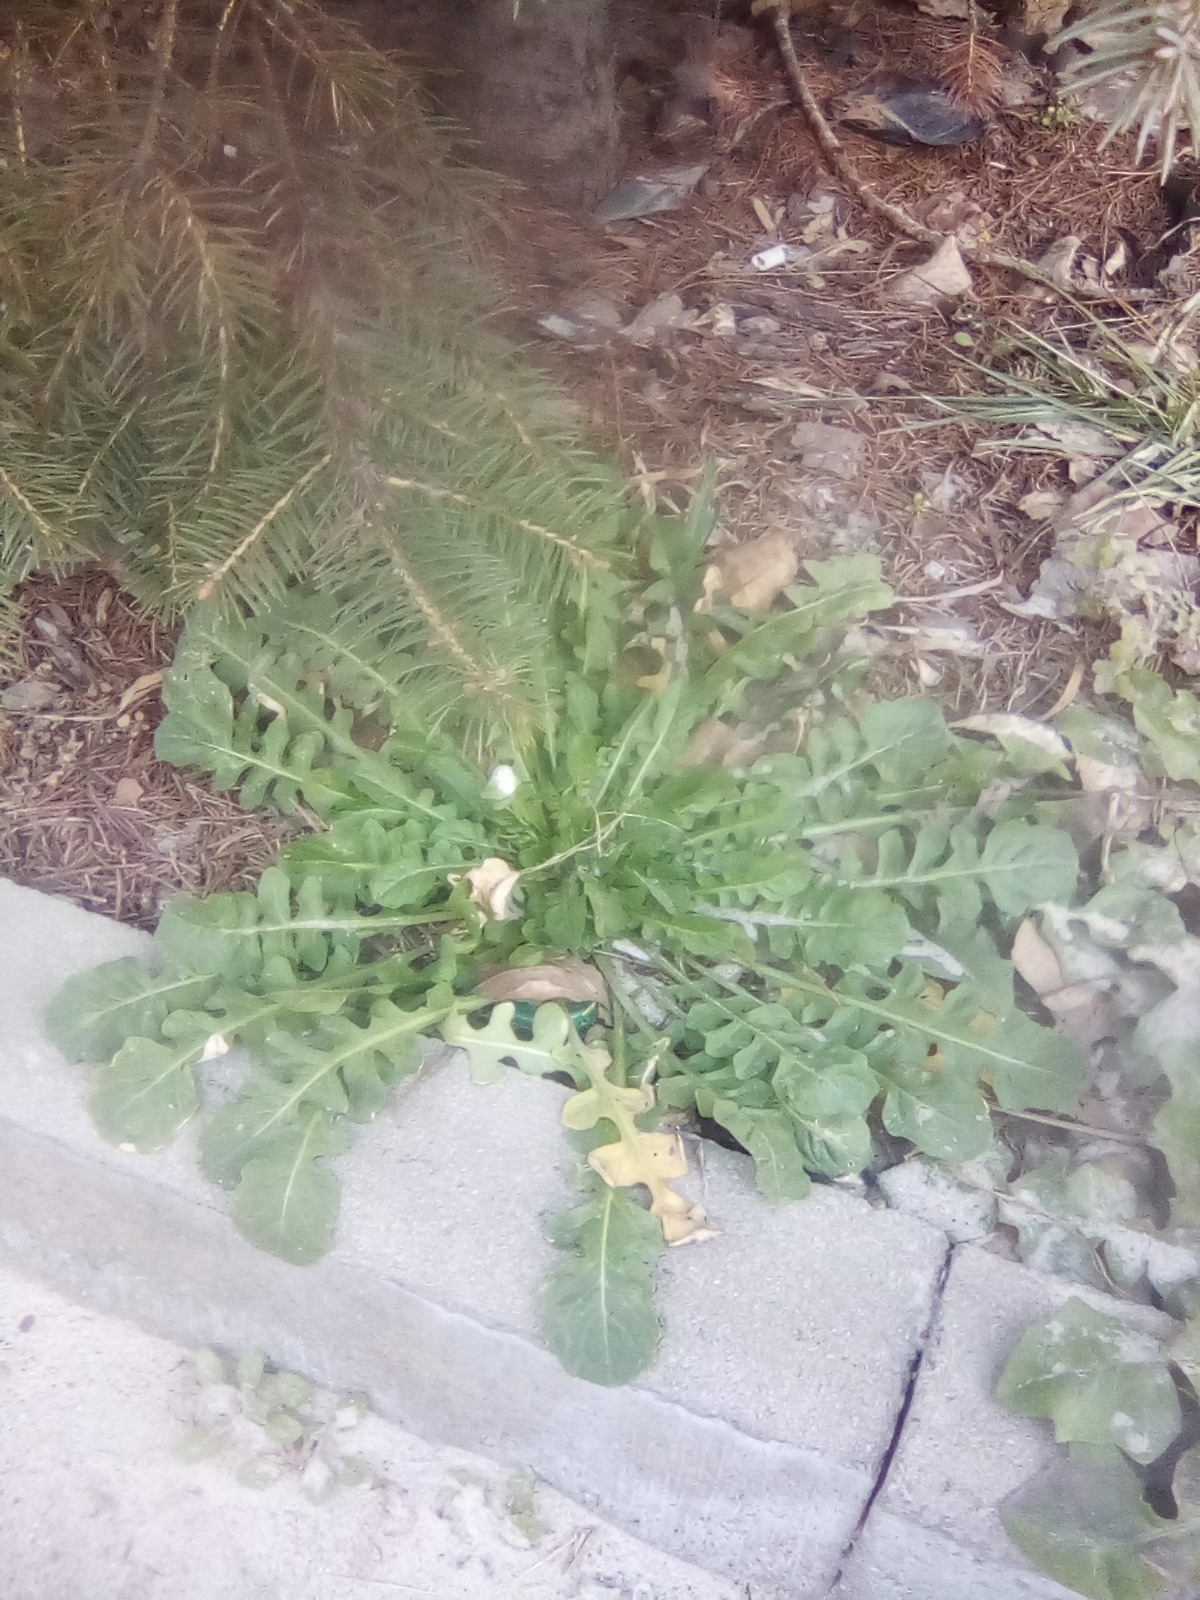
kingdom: Plantae
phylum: Tracheophyta
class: Magnoliopsida
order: Brassicales
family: Brassicaceae
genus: Capsella
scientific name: Capsella bursa-pastoris
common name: Shepherd's purse
